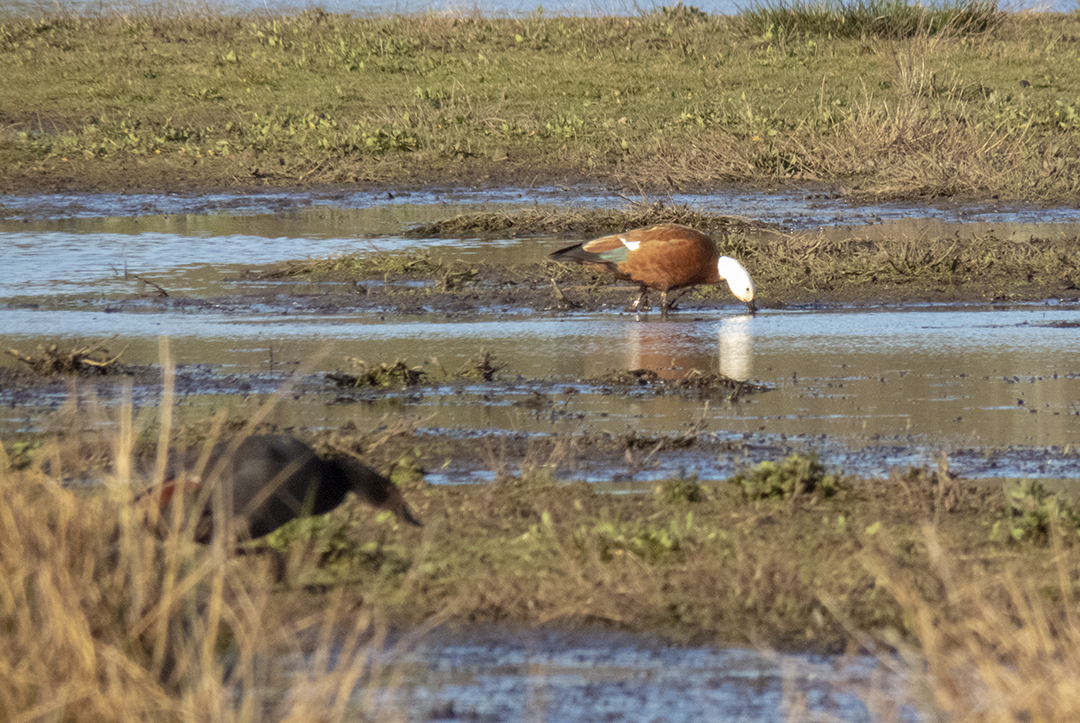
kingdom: Animalia
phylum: Chordata
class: Aves
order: Anseriformes
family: Anatidae
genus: Tadorna
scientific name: Tadorna variegata
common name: Paradise shelduck
